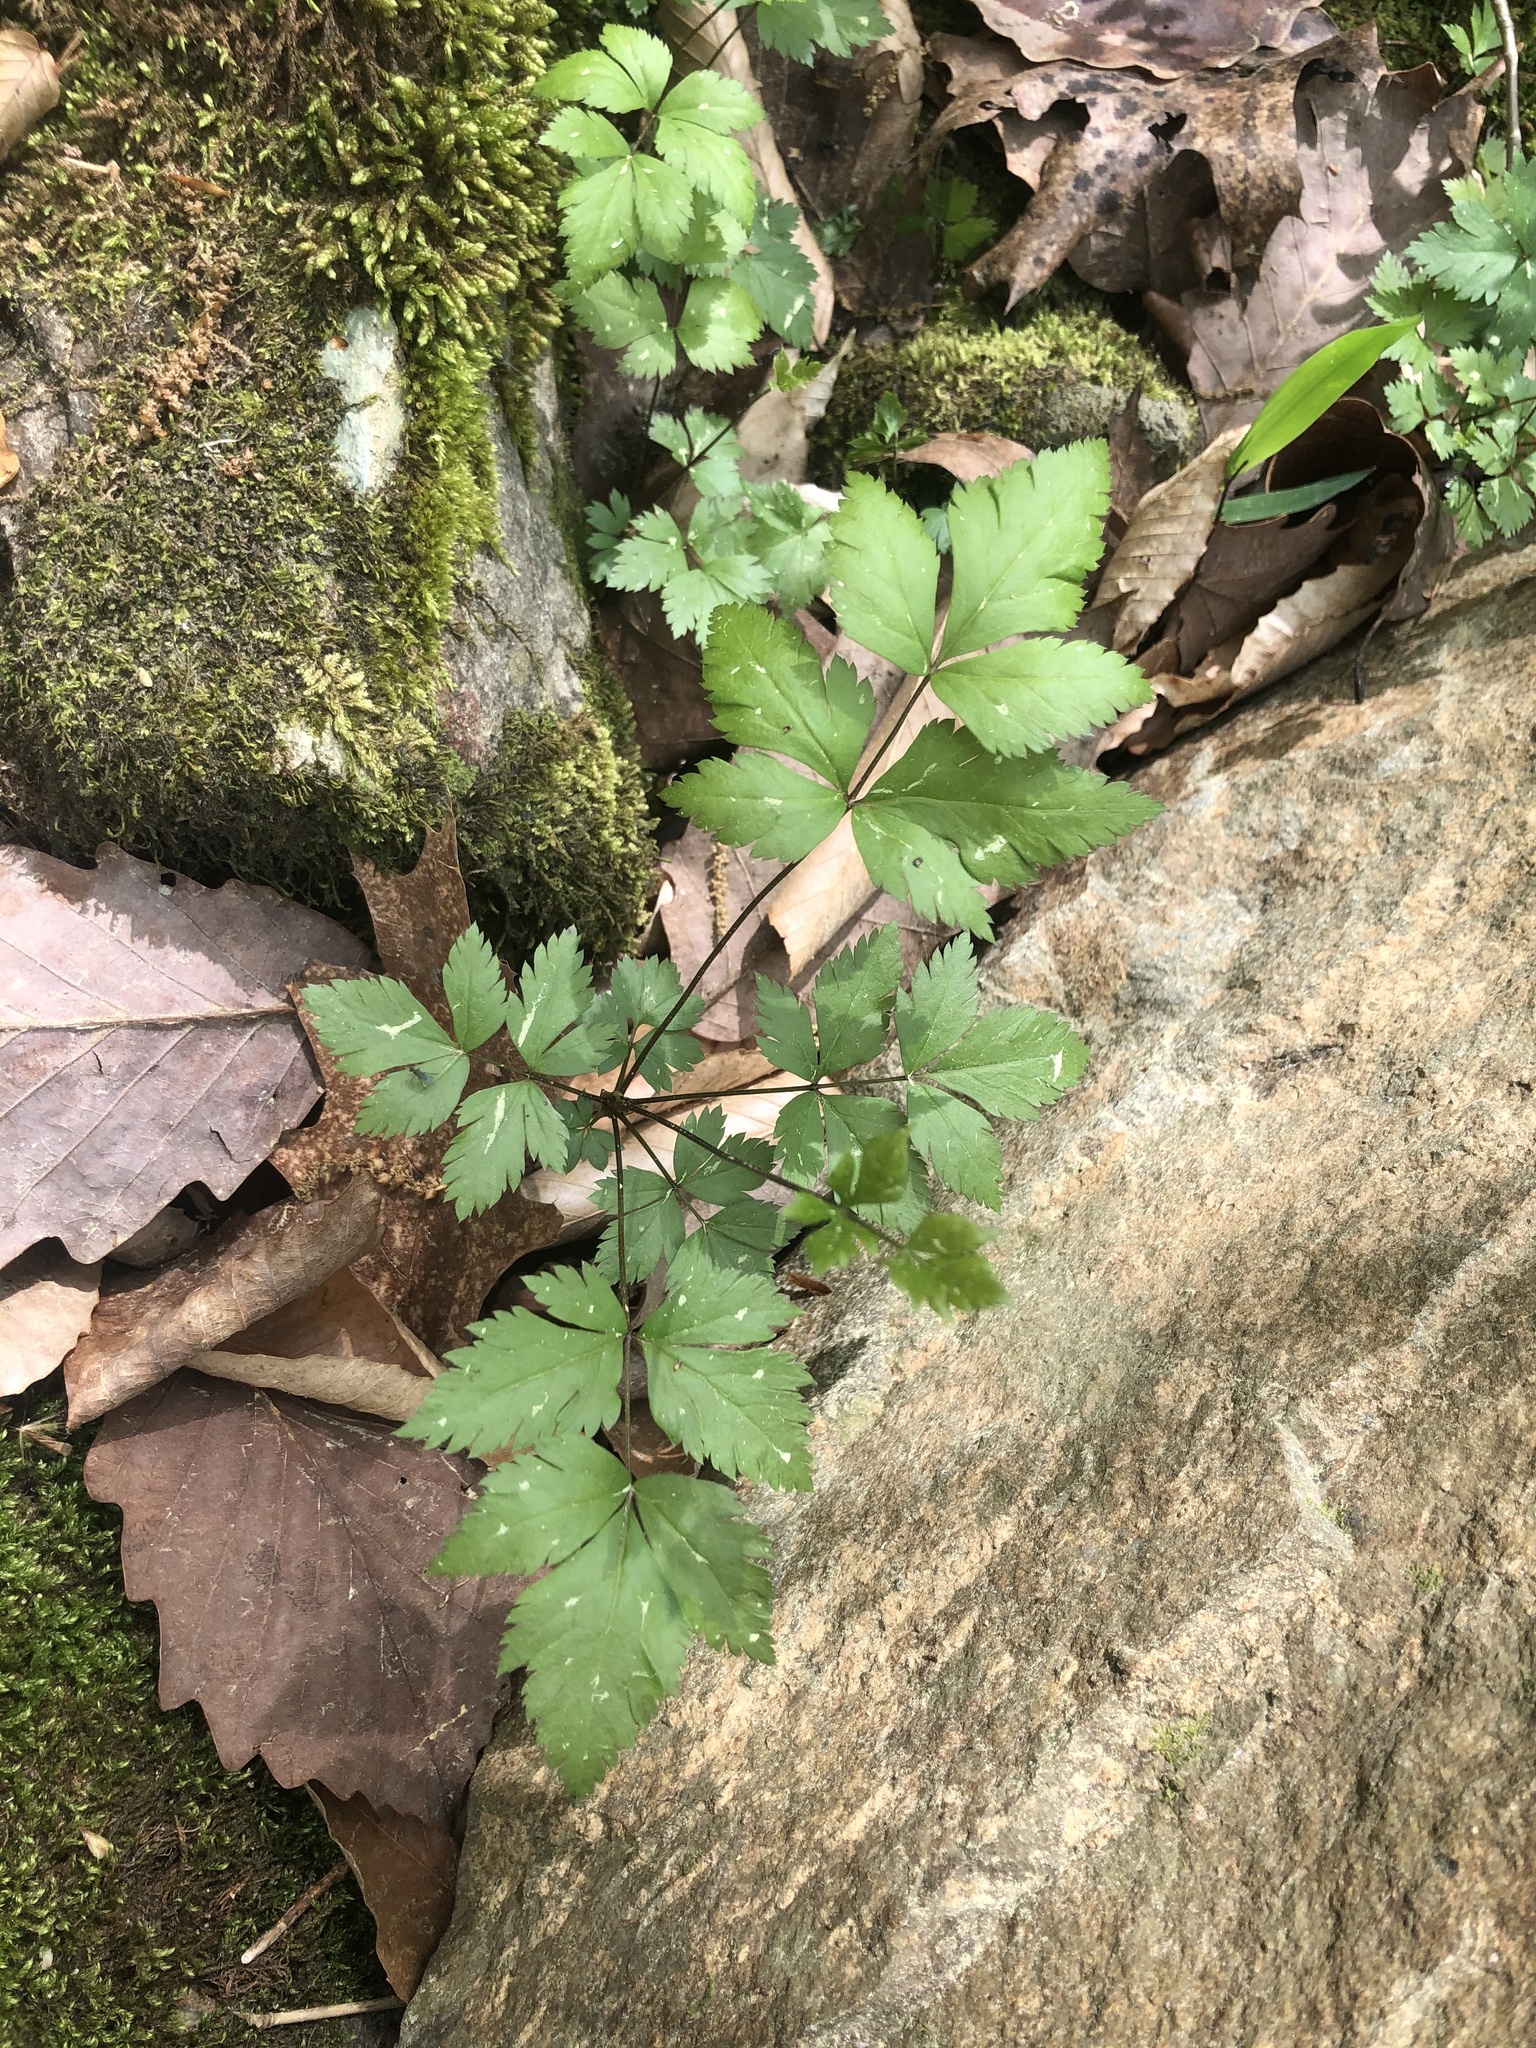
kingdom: Plantae
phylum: Tracheophyta
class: Magnoliopsida
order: Ranunculales
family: Ranunculaceae
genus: Xanthorhiza
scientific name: Xanthorhiza simplicissima
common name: Yellowroot
